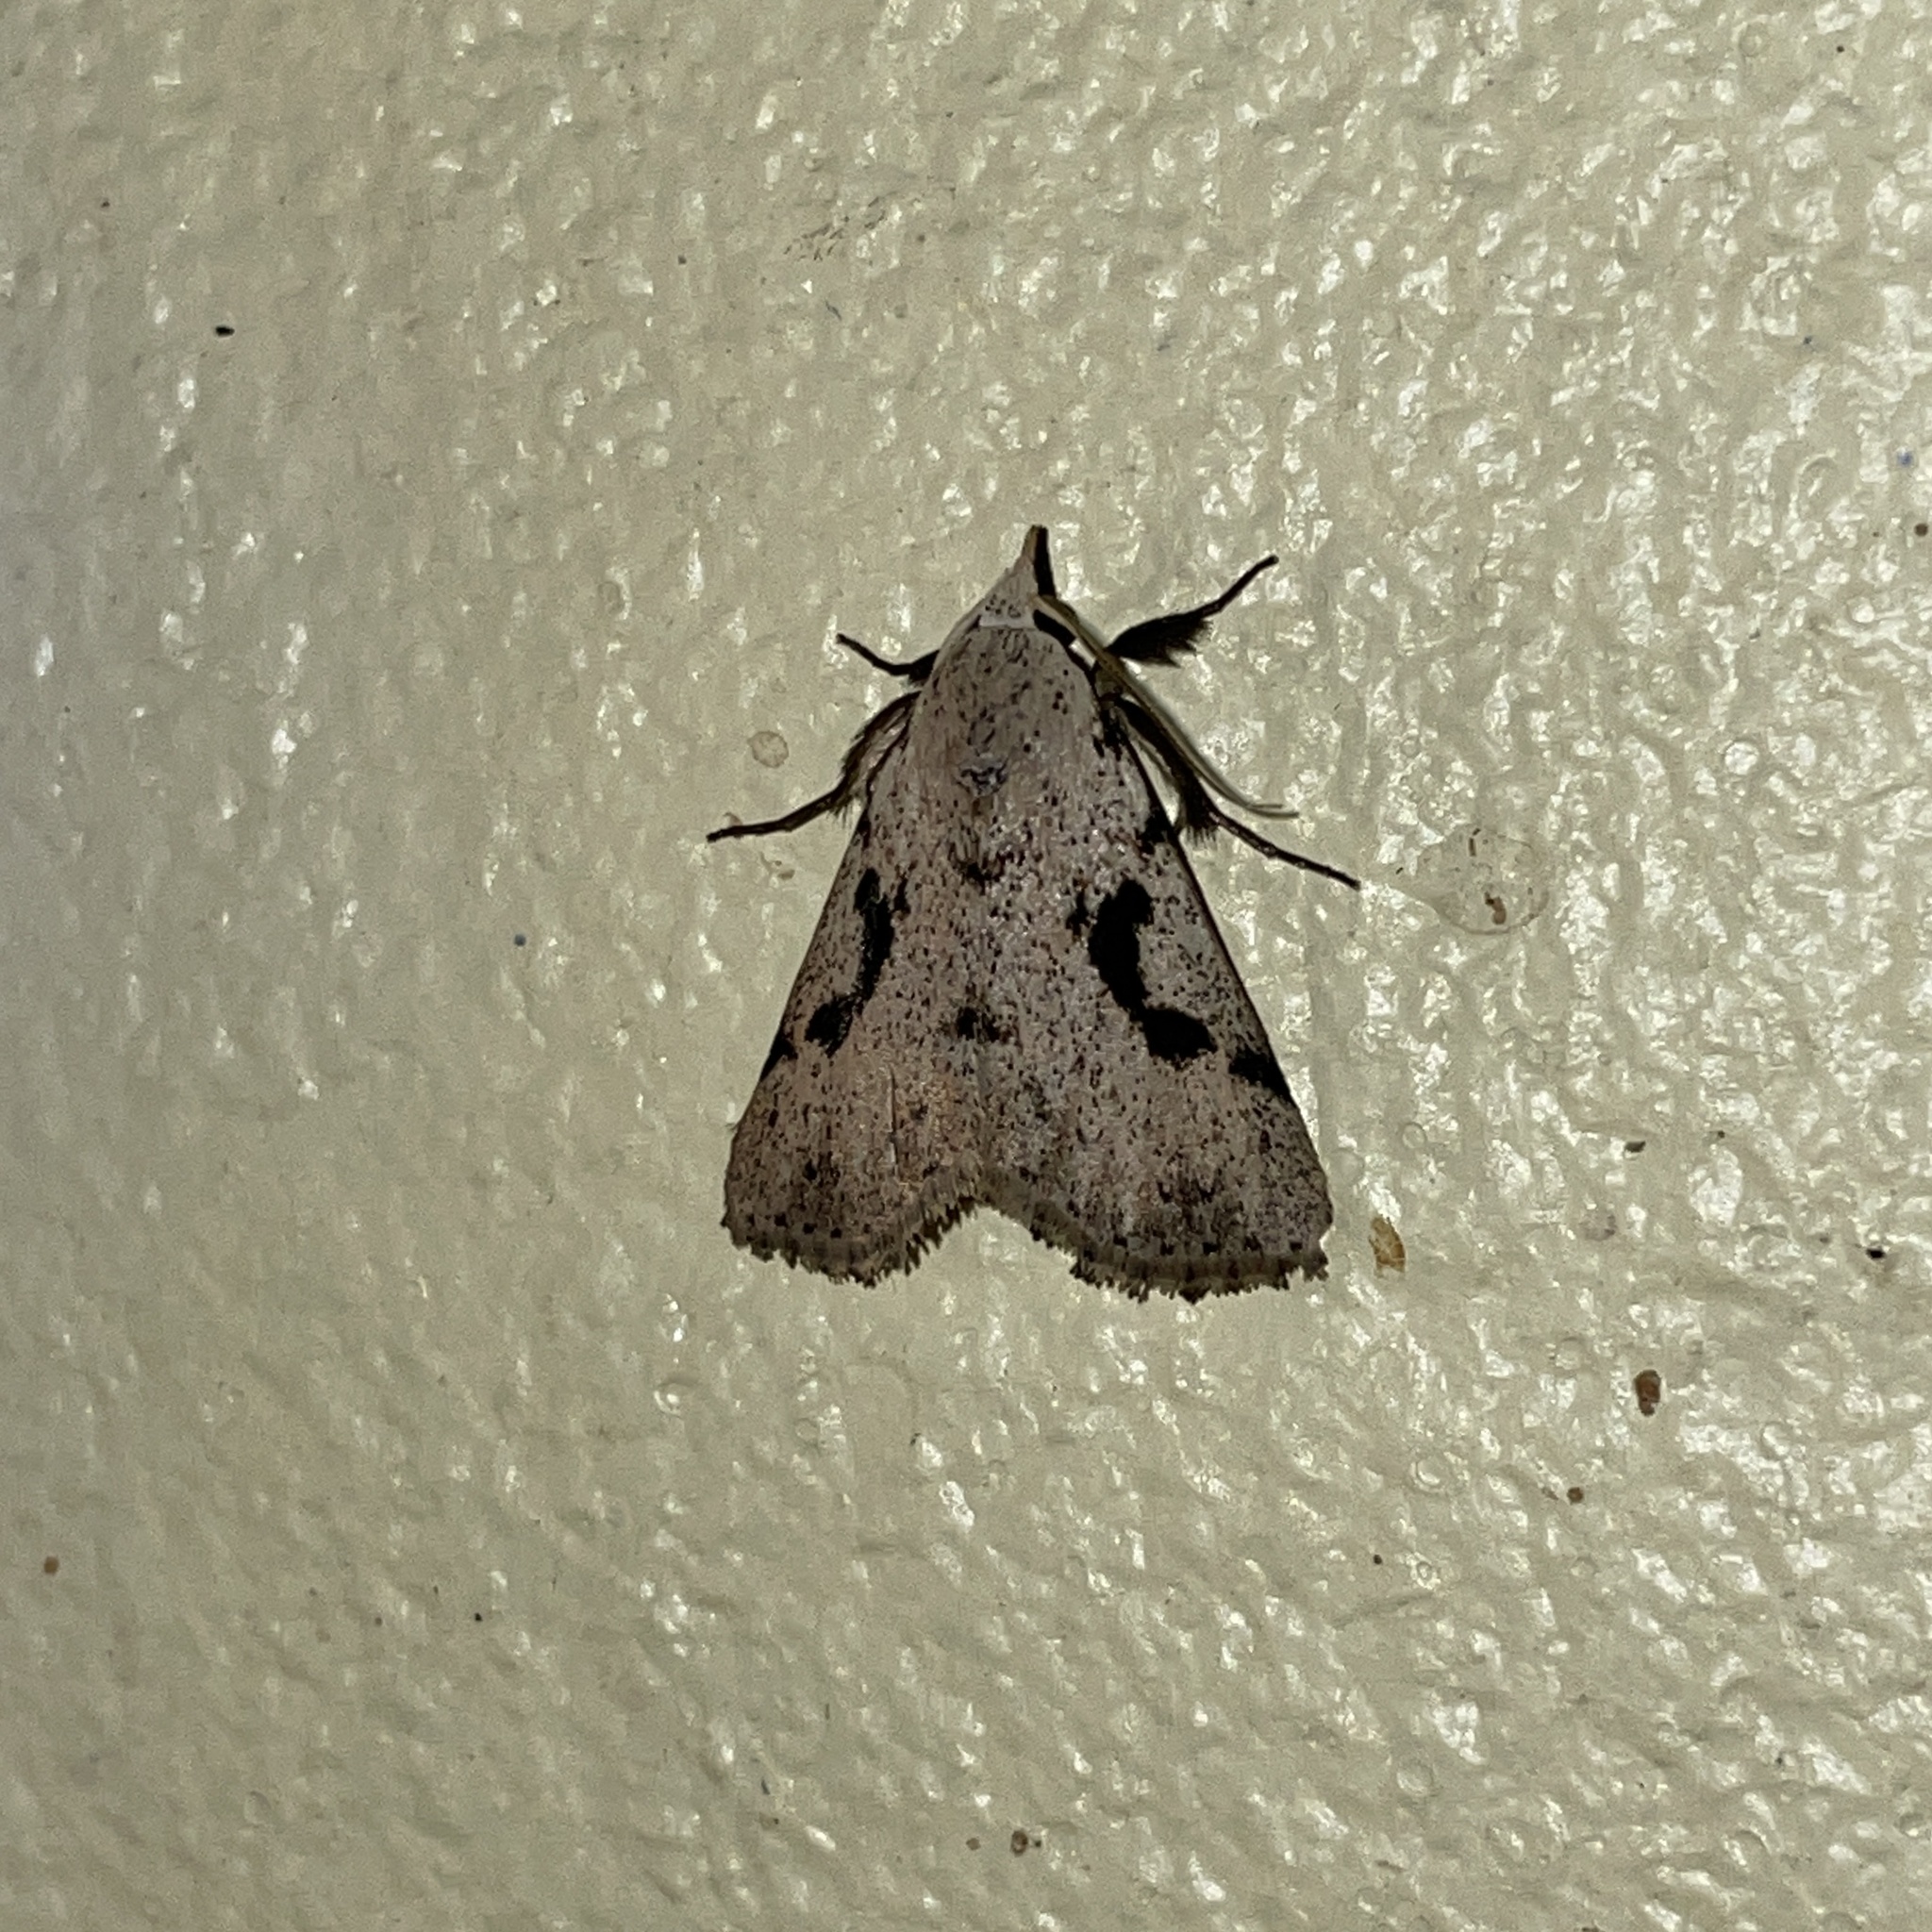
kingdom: Animalia
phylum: Arthropoda
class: Insecta
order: Lepidoptera
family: Erebidae
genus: Acanthermia
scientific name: Acanthermia concatenalis
